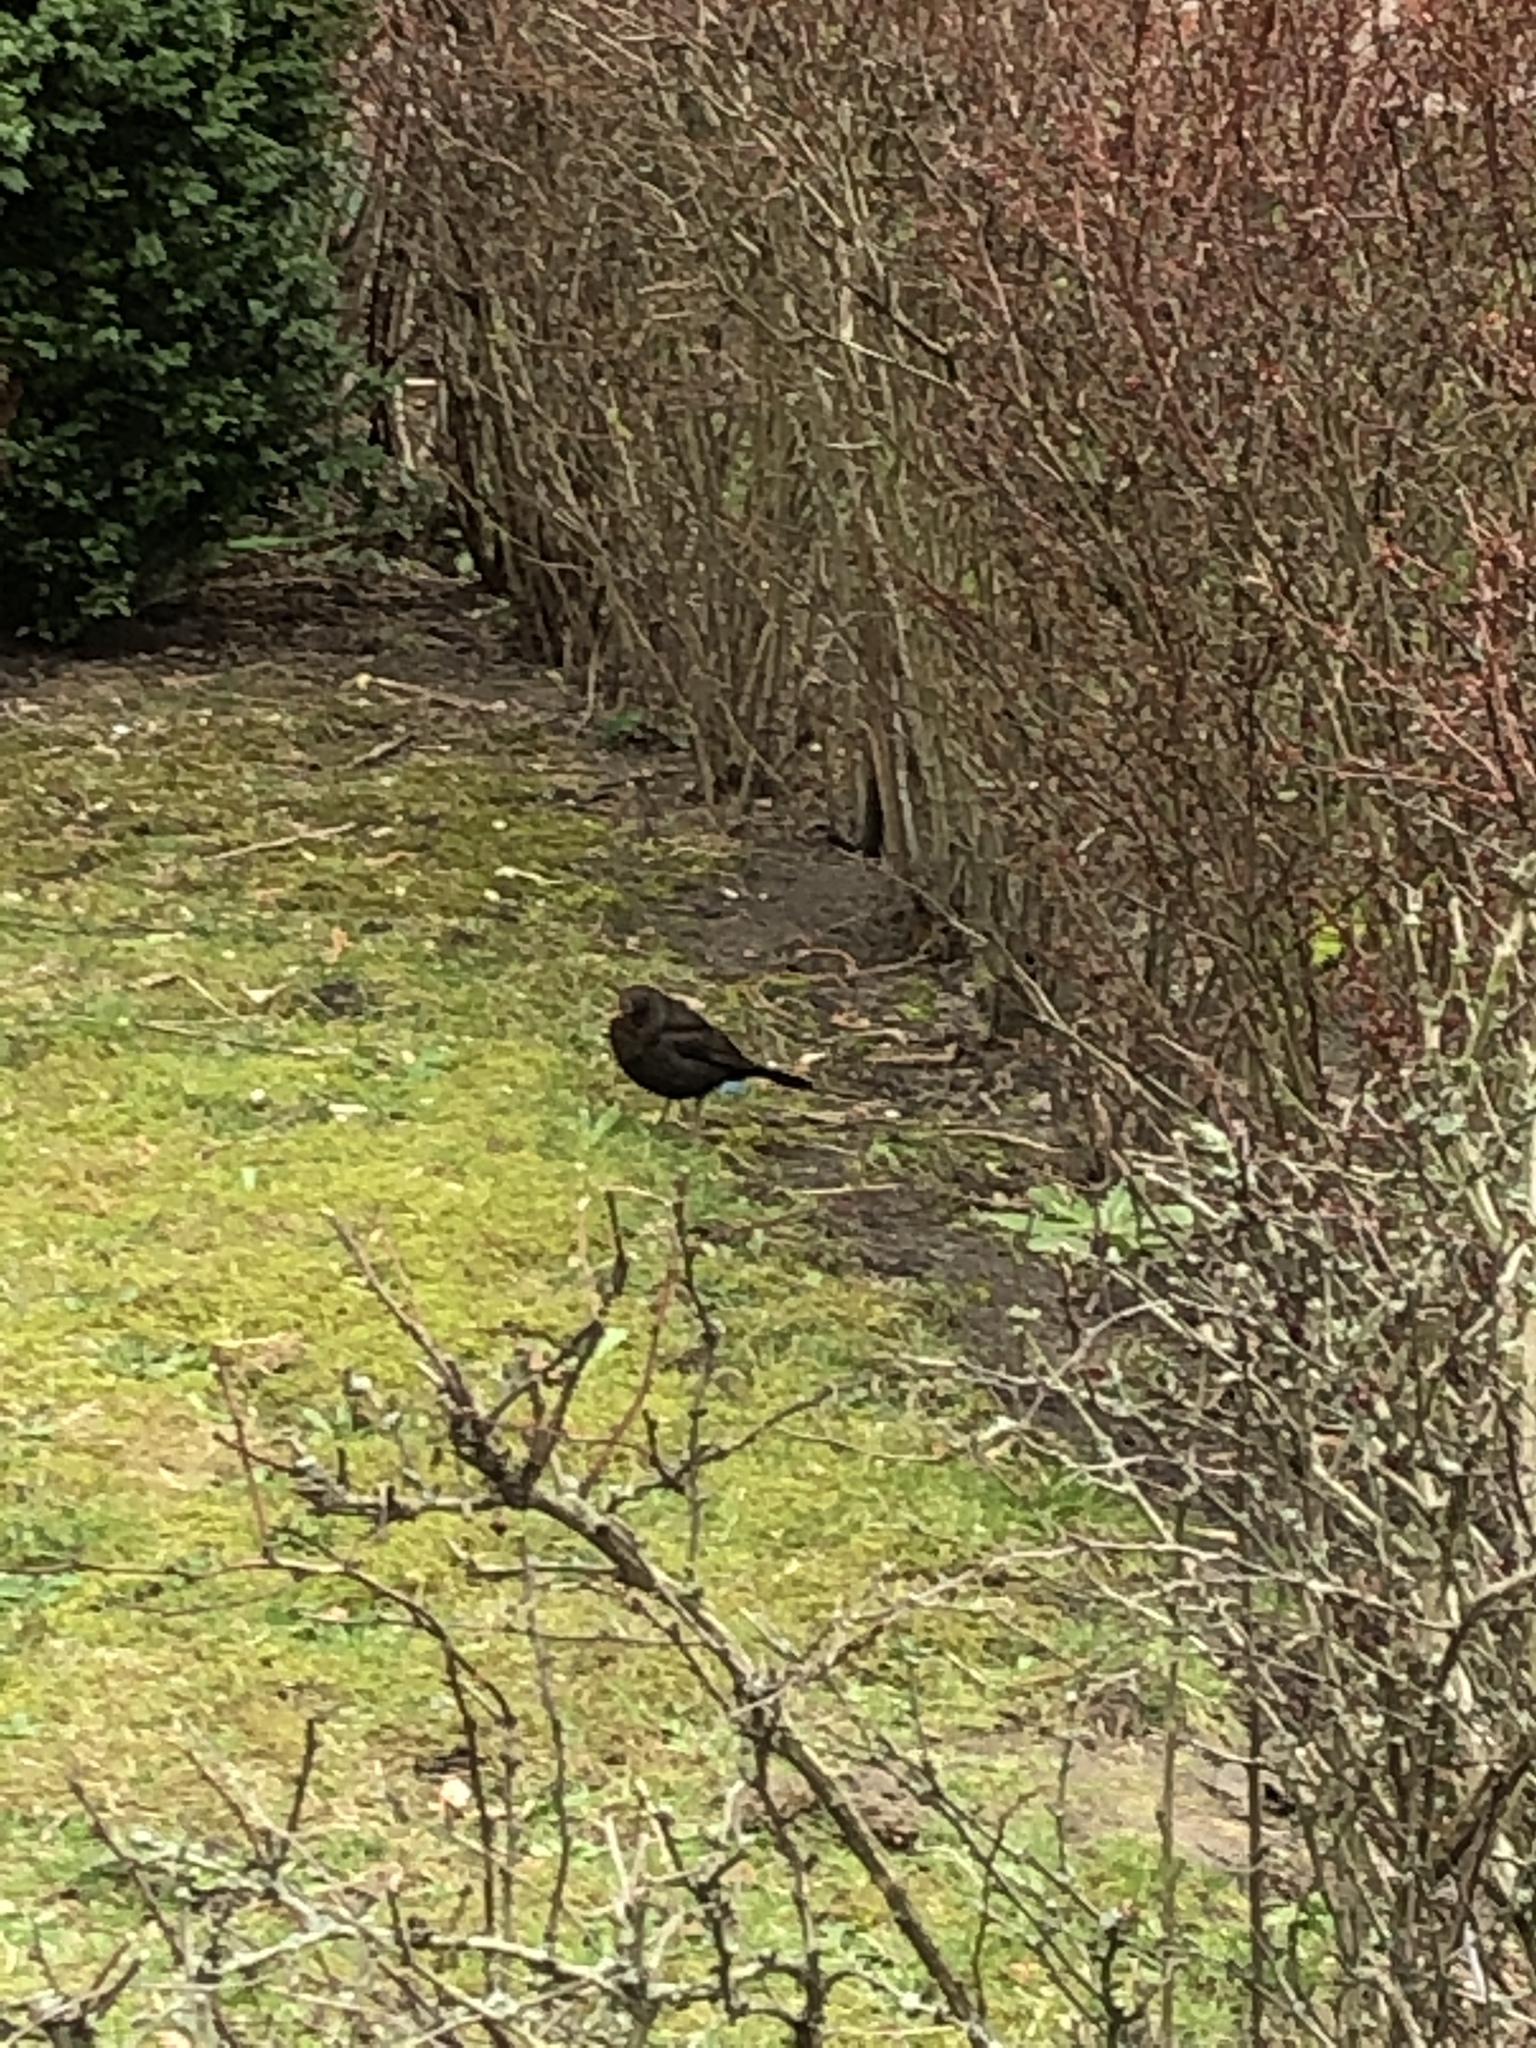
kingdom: Animalia
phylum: Chordata
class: Aves
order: Passeriformes
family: Turdidae
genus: Turdus
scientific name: Turdus merula
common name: Common blackbird
